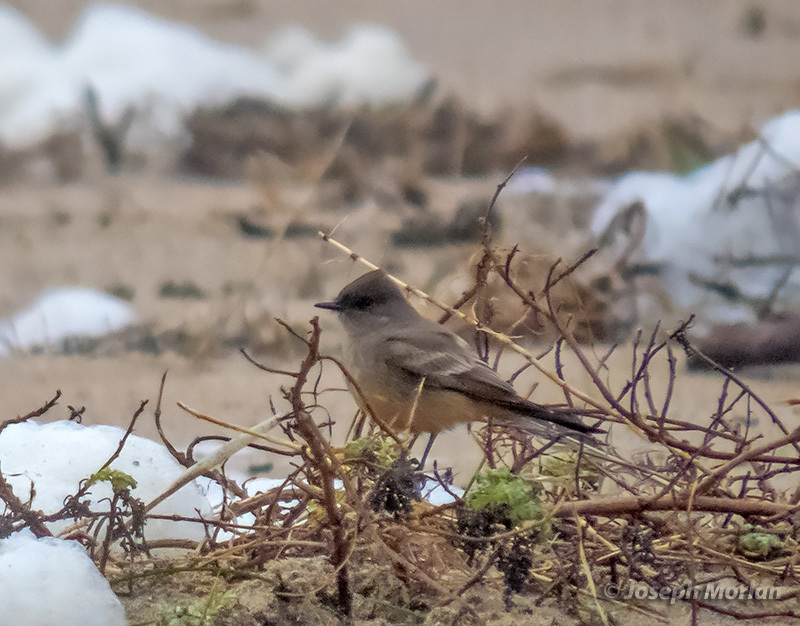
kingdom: Animalia
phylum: Chordata
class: Aves
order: Passeriformes
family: Tyrannidae
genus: Sayornis
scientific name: Sayornis saya
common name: Say's phoebe
